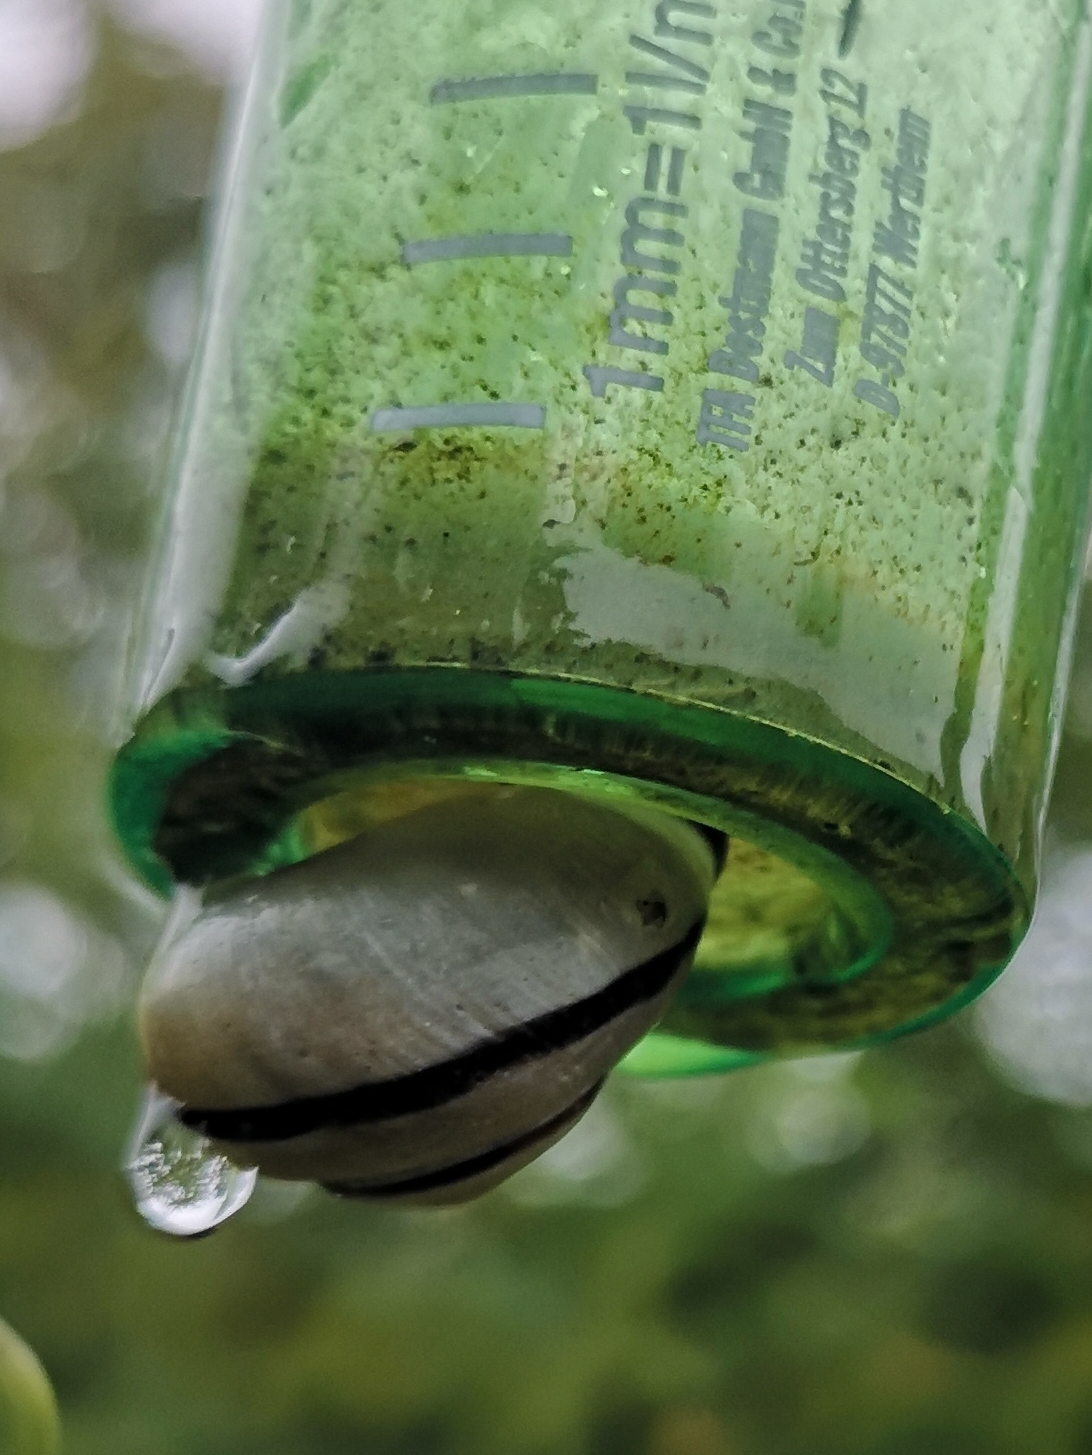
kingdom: Animalia
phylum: Mollusca
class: Gastropoda
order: Stylommatophora
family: Helicidae
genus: Cepaea
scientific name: Cepaea nemoralis
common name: Grovesnail
